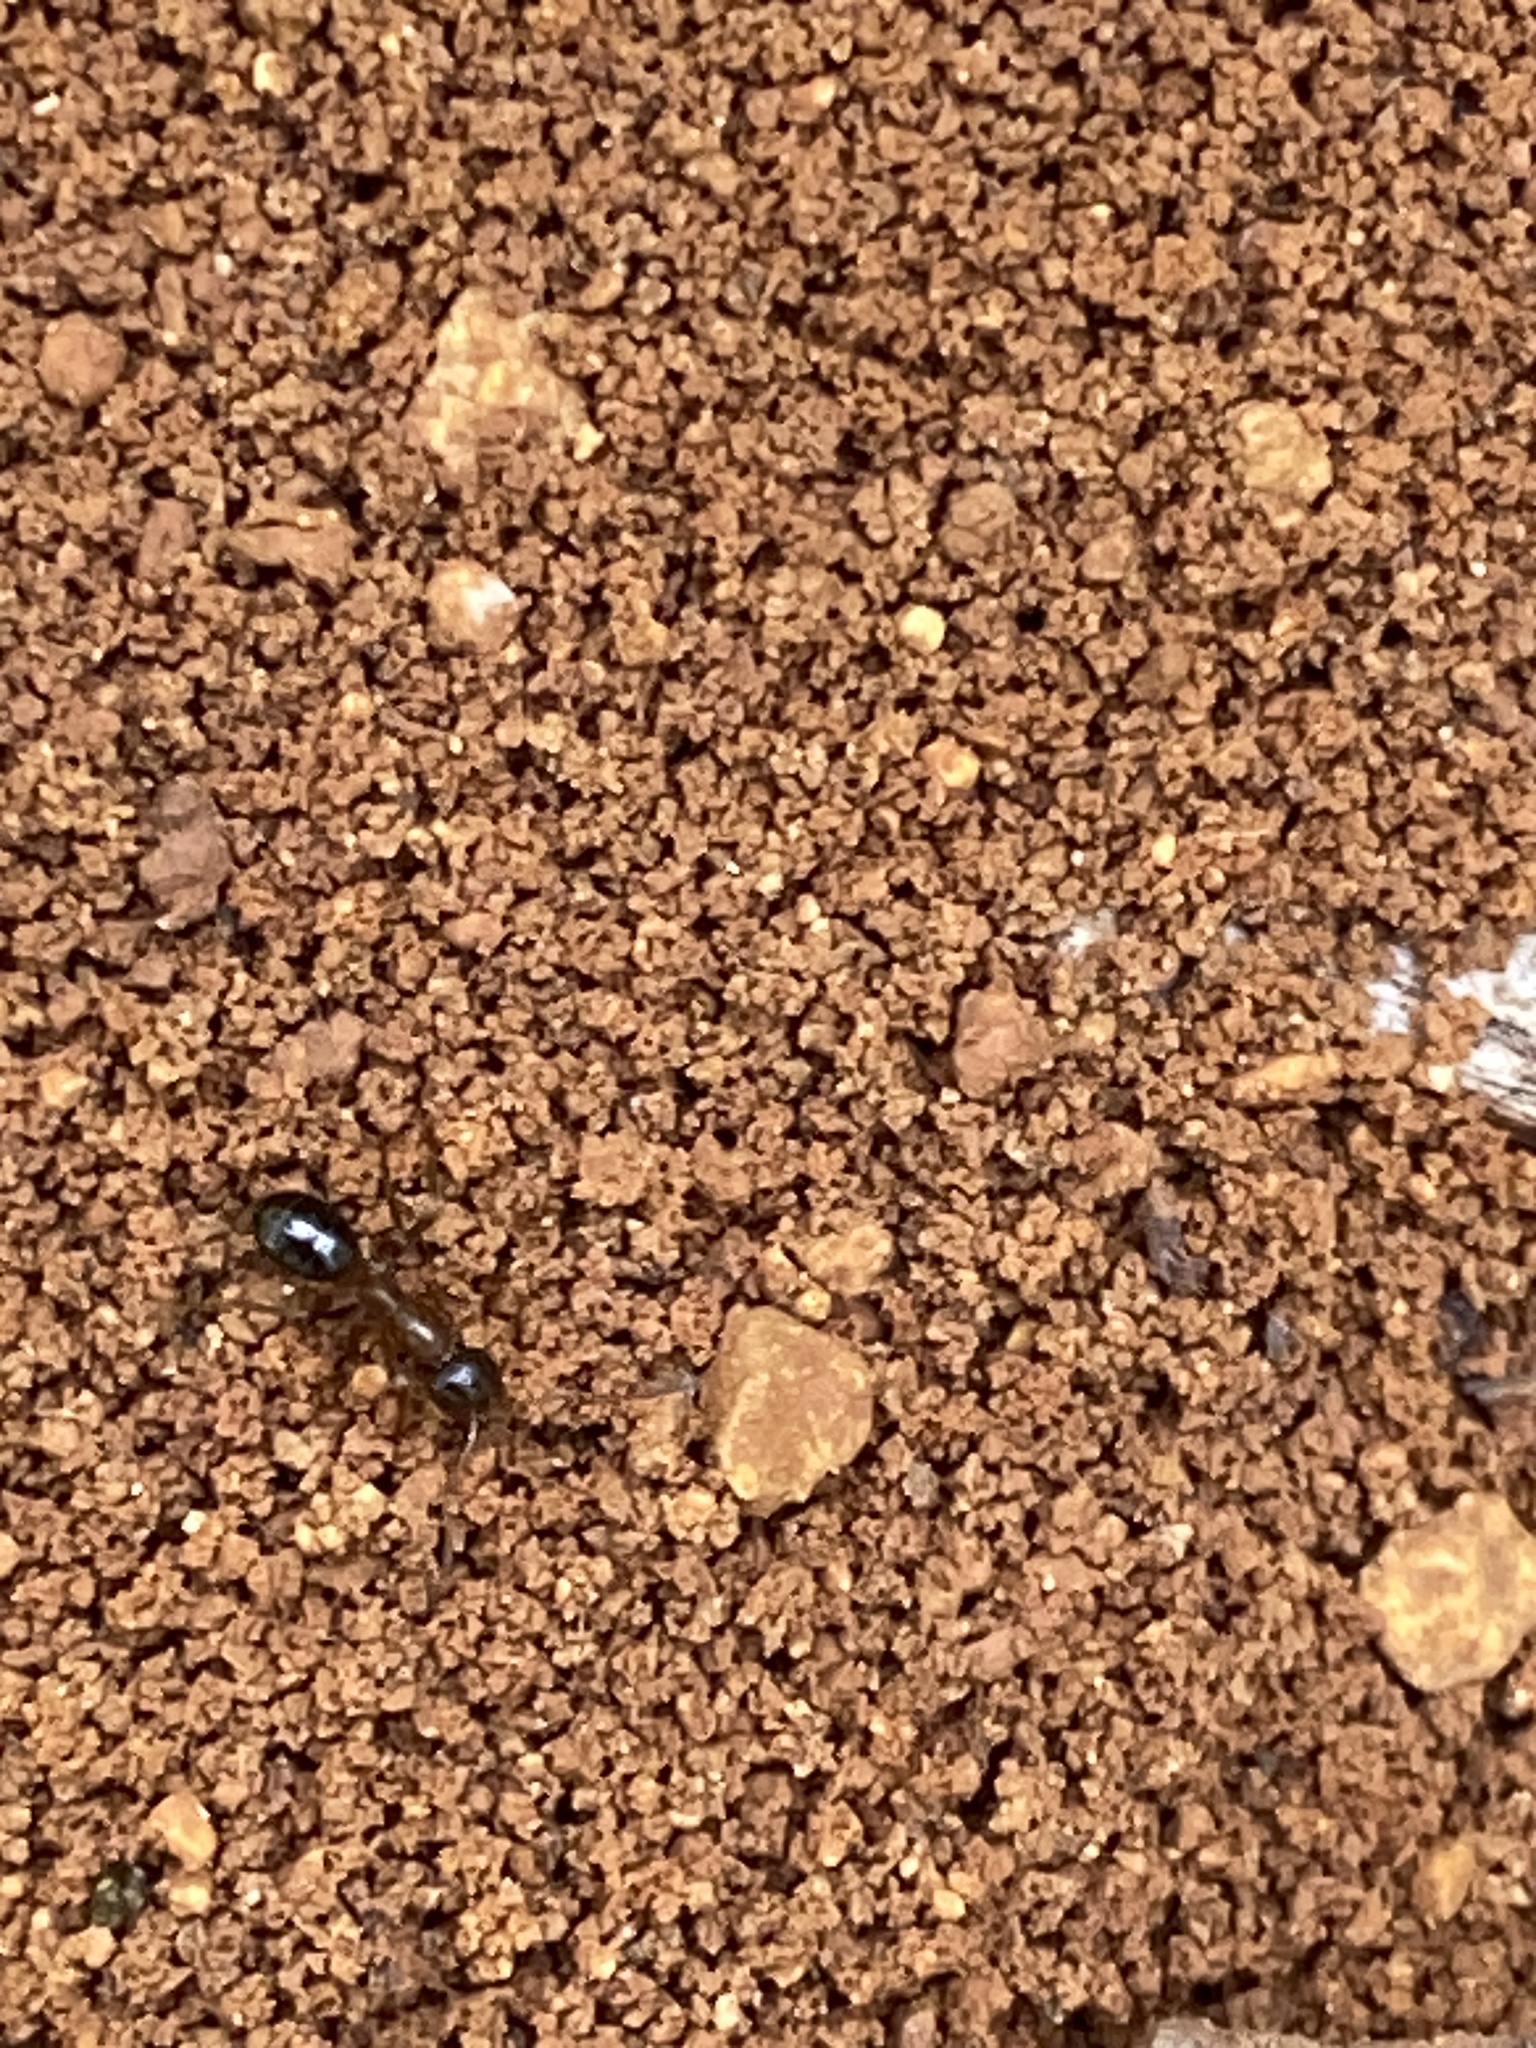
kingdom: Animalia
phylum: Arthropoda
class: Insecta
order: Hymenoptera
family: Formicidae
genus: Formica
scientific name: Formica subpolita
